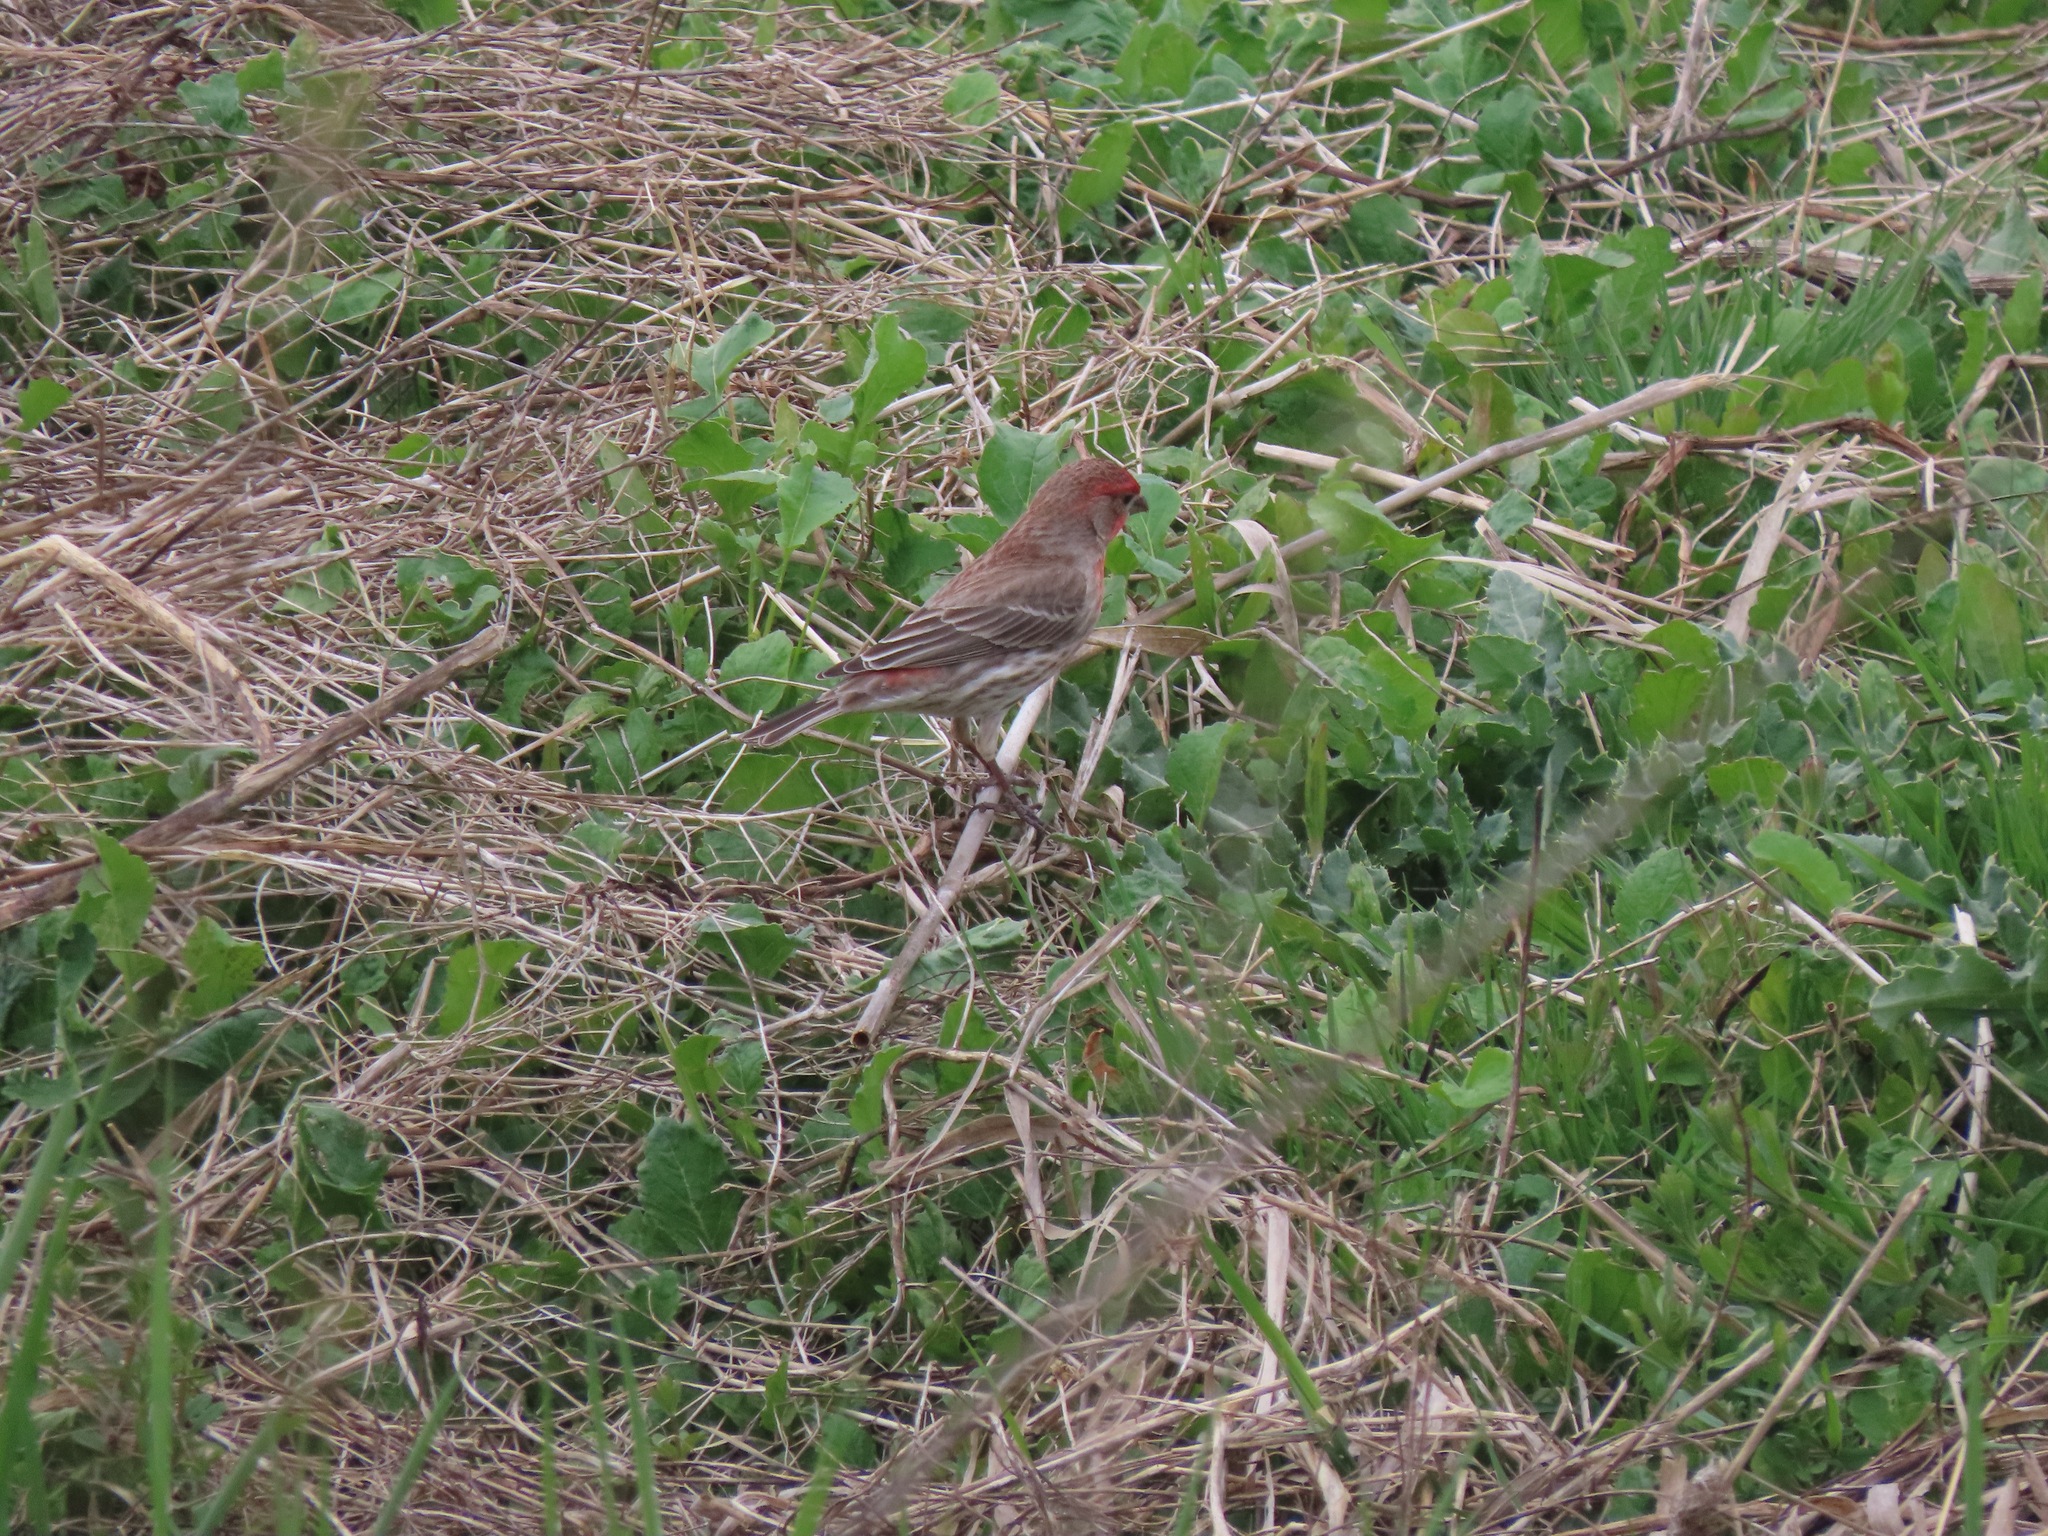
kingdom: Animalia
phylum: Chordata
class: Aves
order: Passeriformes
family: Fringillidae
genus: Haemorhous
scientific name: Haemorhous mexicanus
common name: House finch
